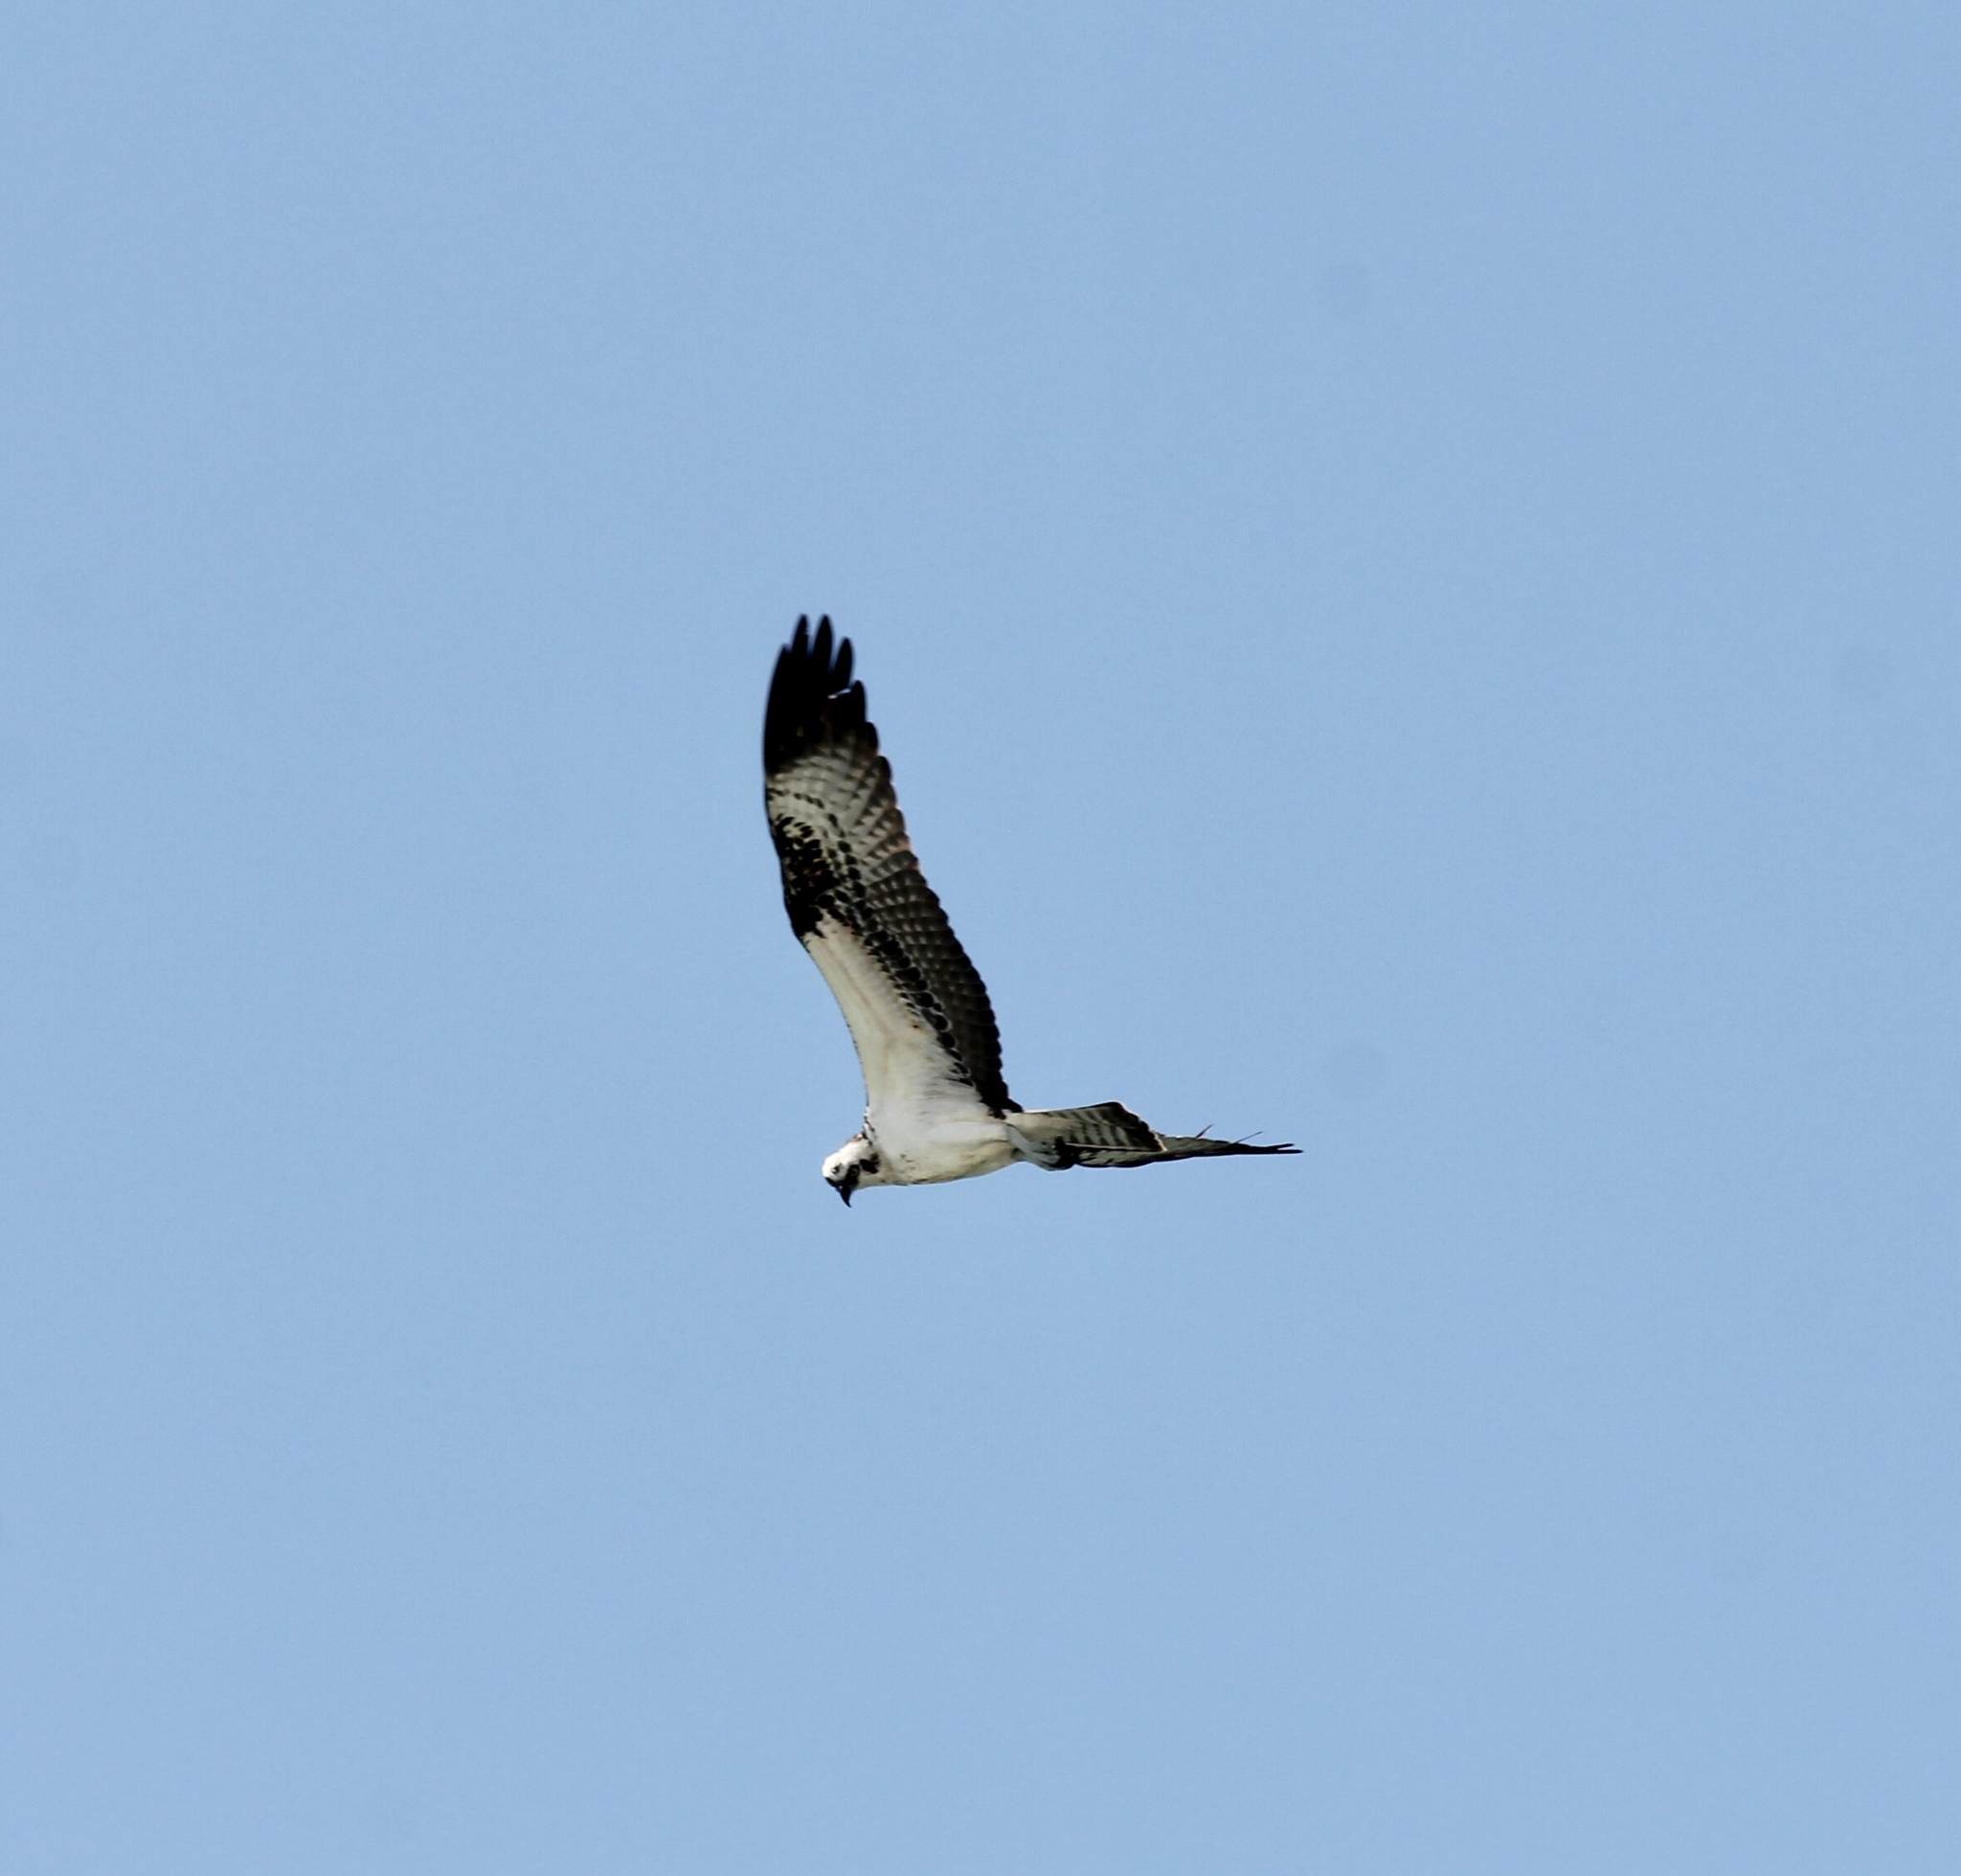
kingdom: Animalia
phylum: Chordata
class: Aves
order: Accipitriformes
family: Pandionidae
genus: Pandion
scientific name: Pandion haliaetus
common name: Osprey
